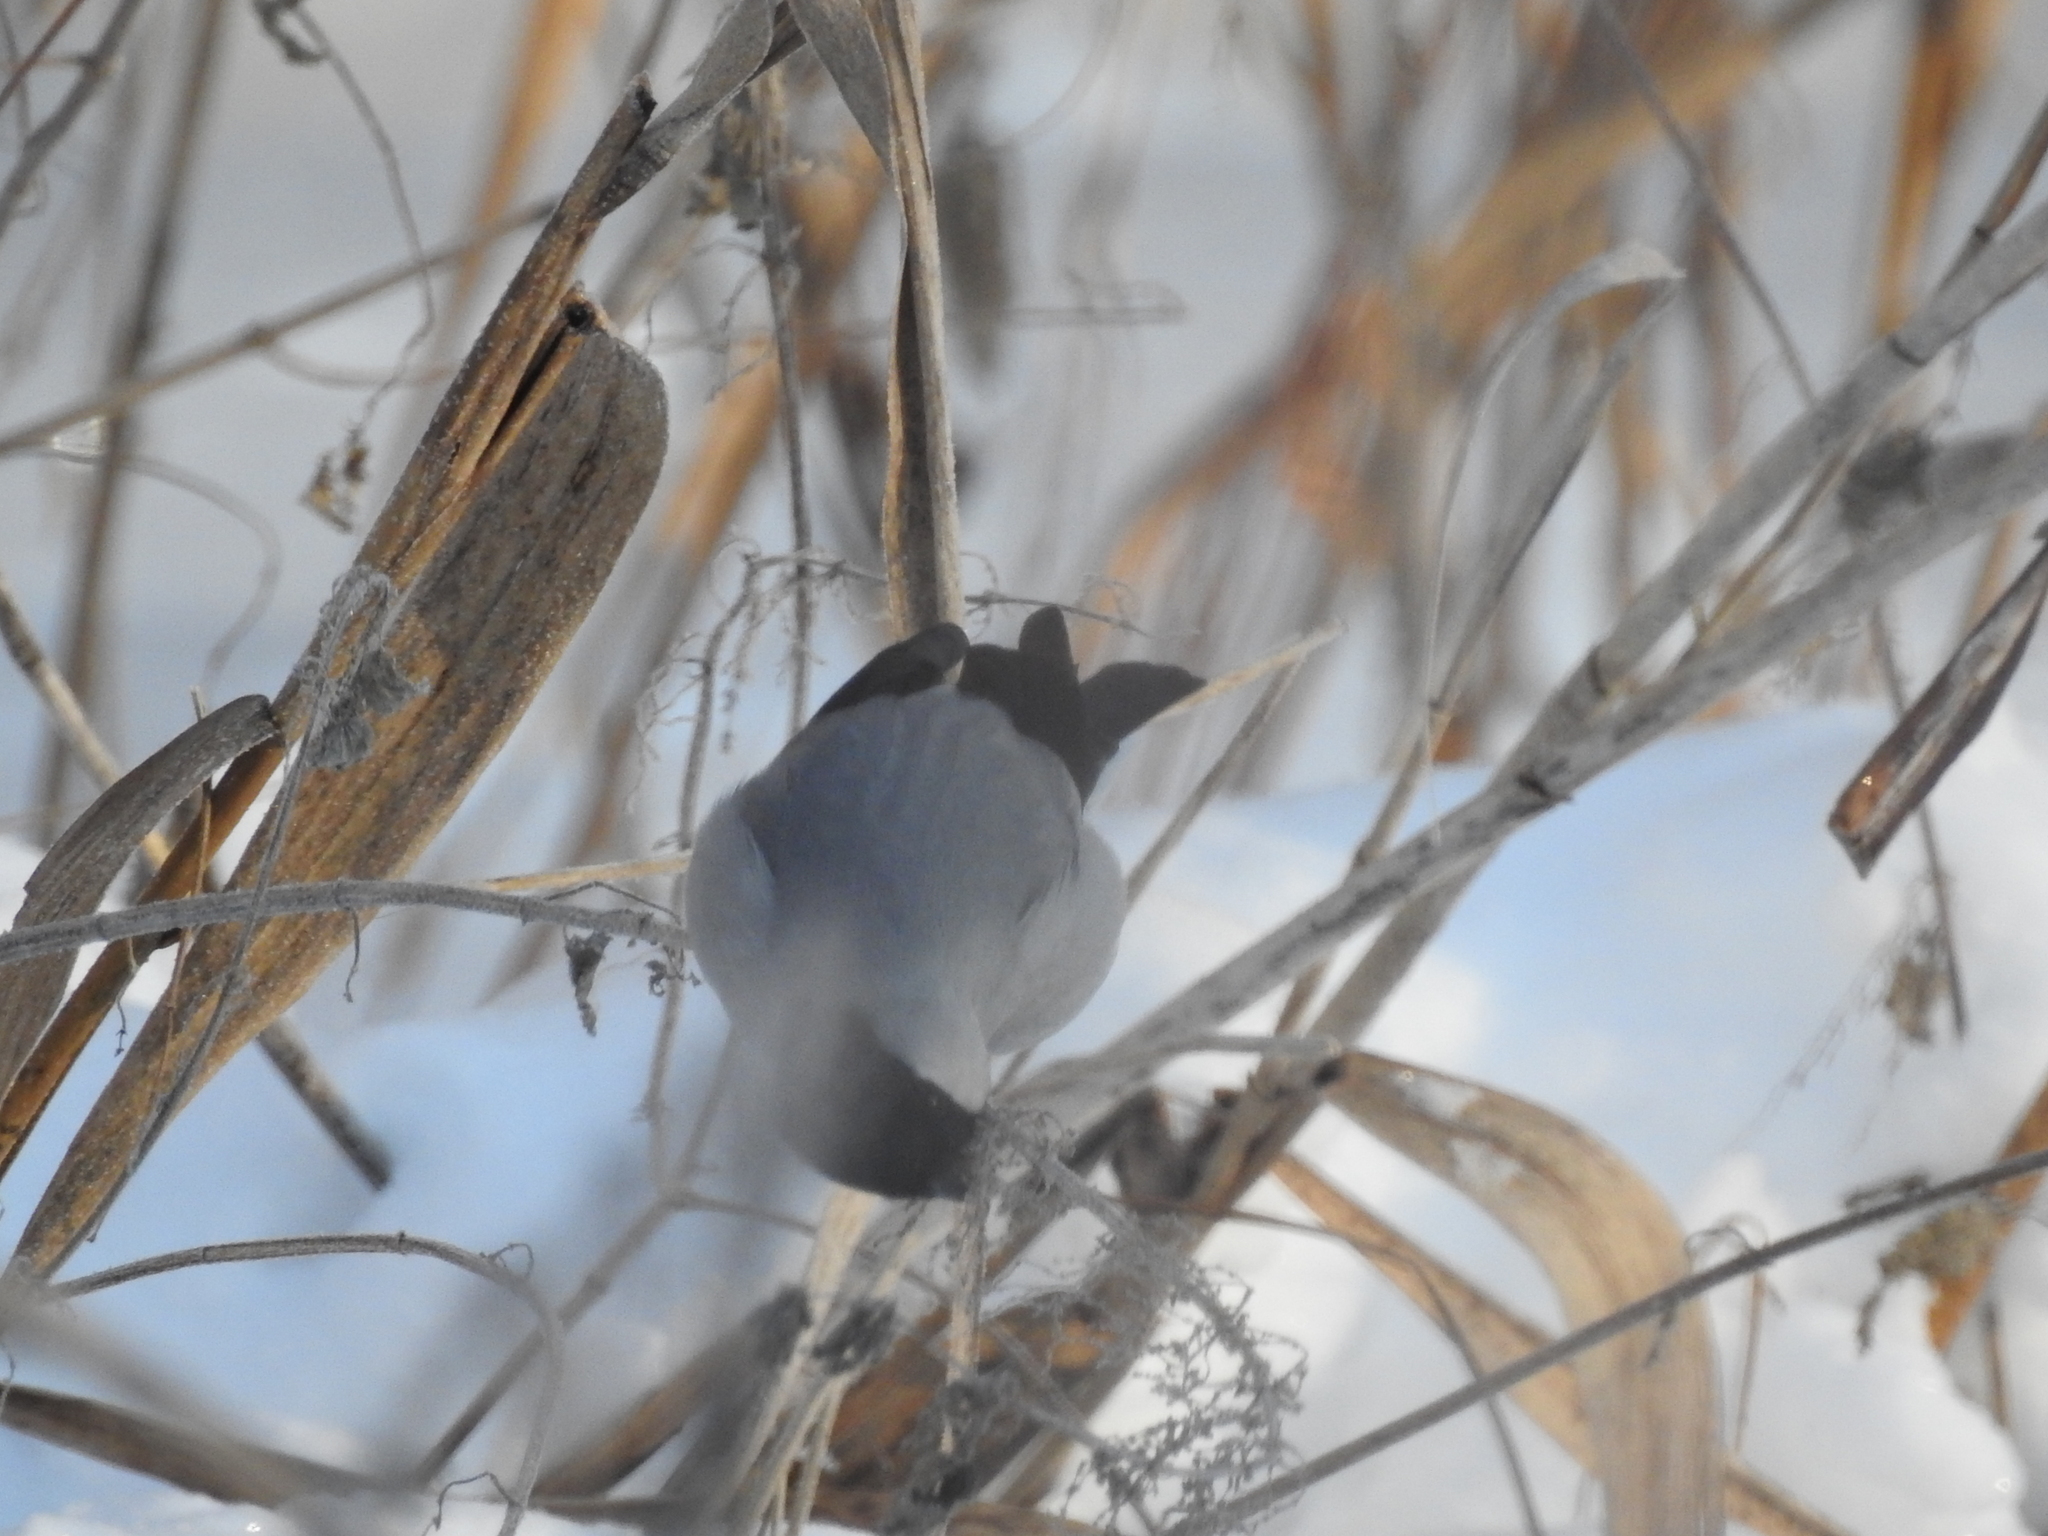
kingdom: Animalia
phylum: Chordata
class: Aves
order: Passeriformes
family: Fringillidae
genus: Pyrrhula
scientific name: Pyrrhula pyrrhula
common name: Eurasian bullfinch
